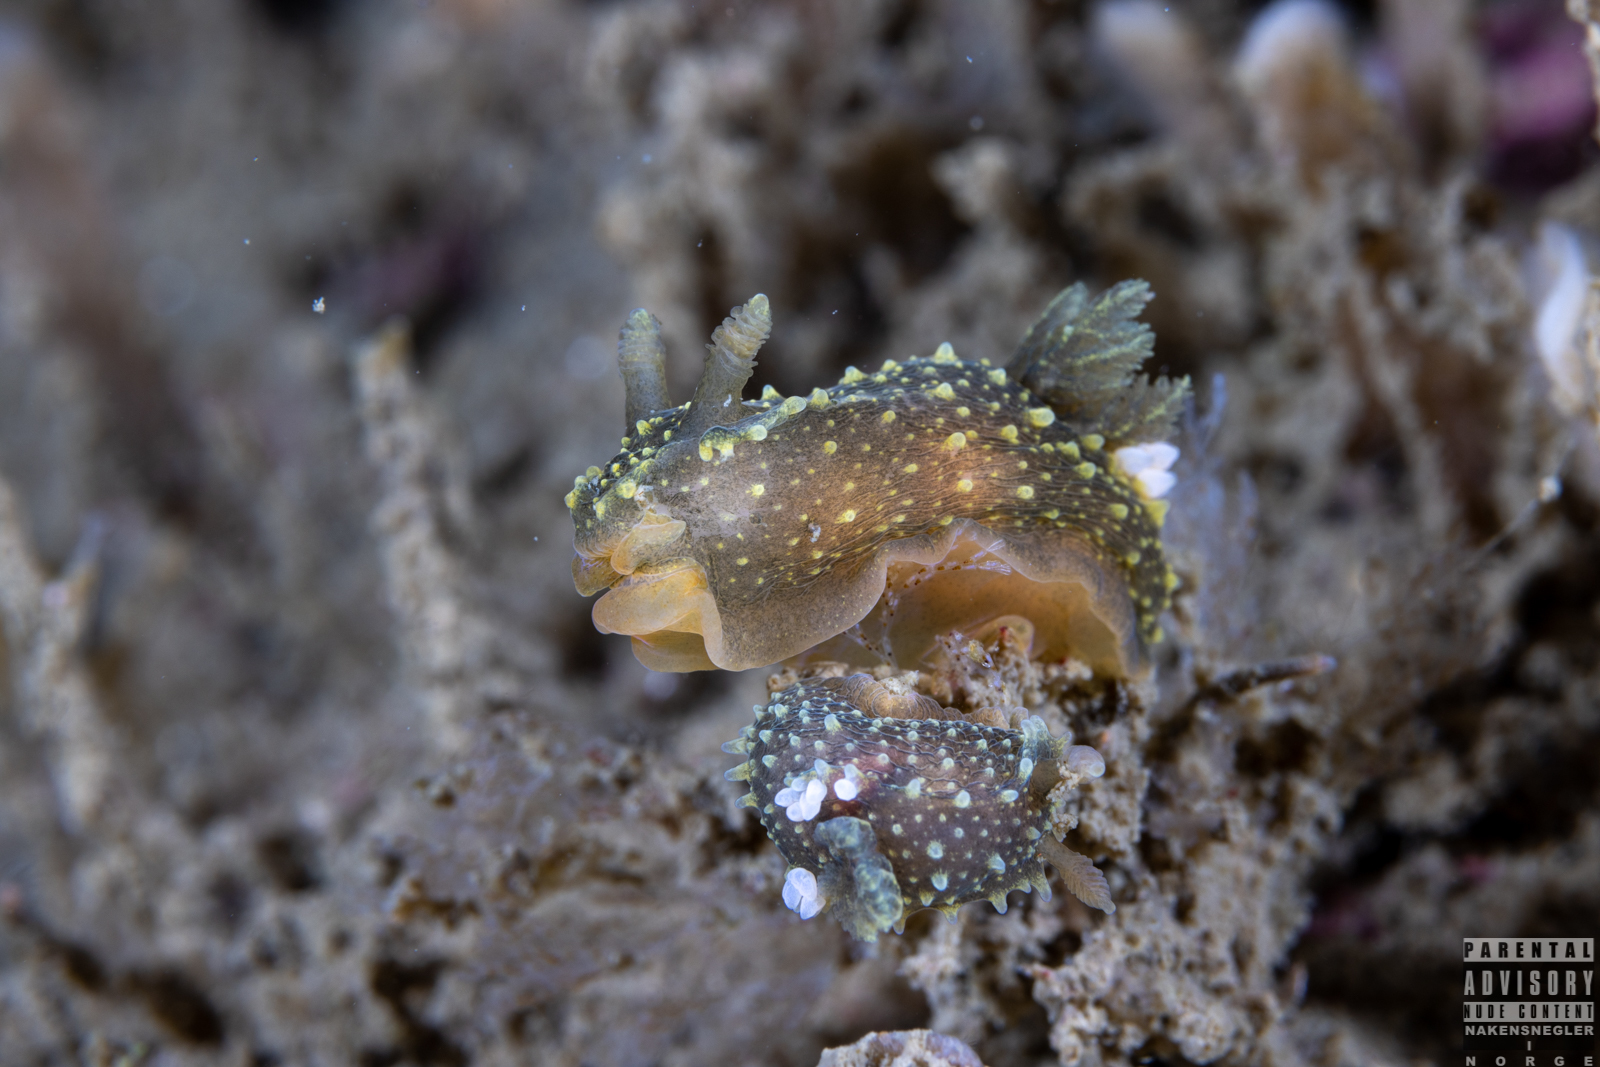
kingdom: Animalia
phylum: Mollusca
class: Gastropoda
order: Nudibranchia
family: Polyceridae
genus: Palio
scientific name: Palio dubia
